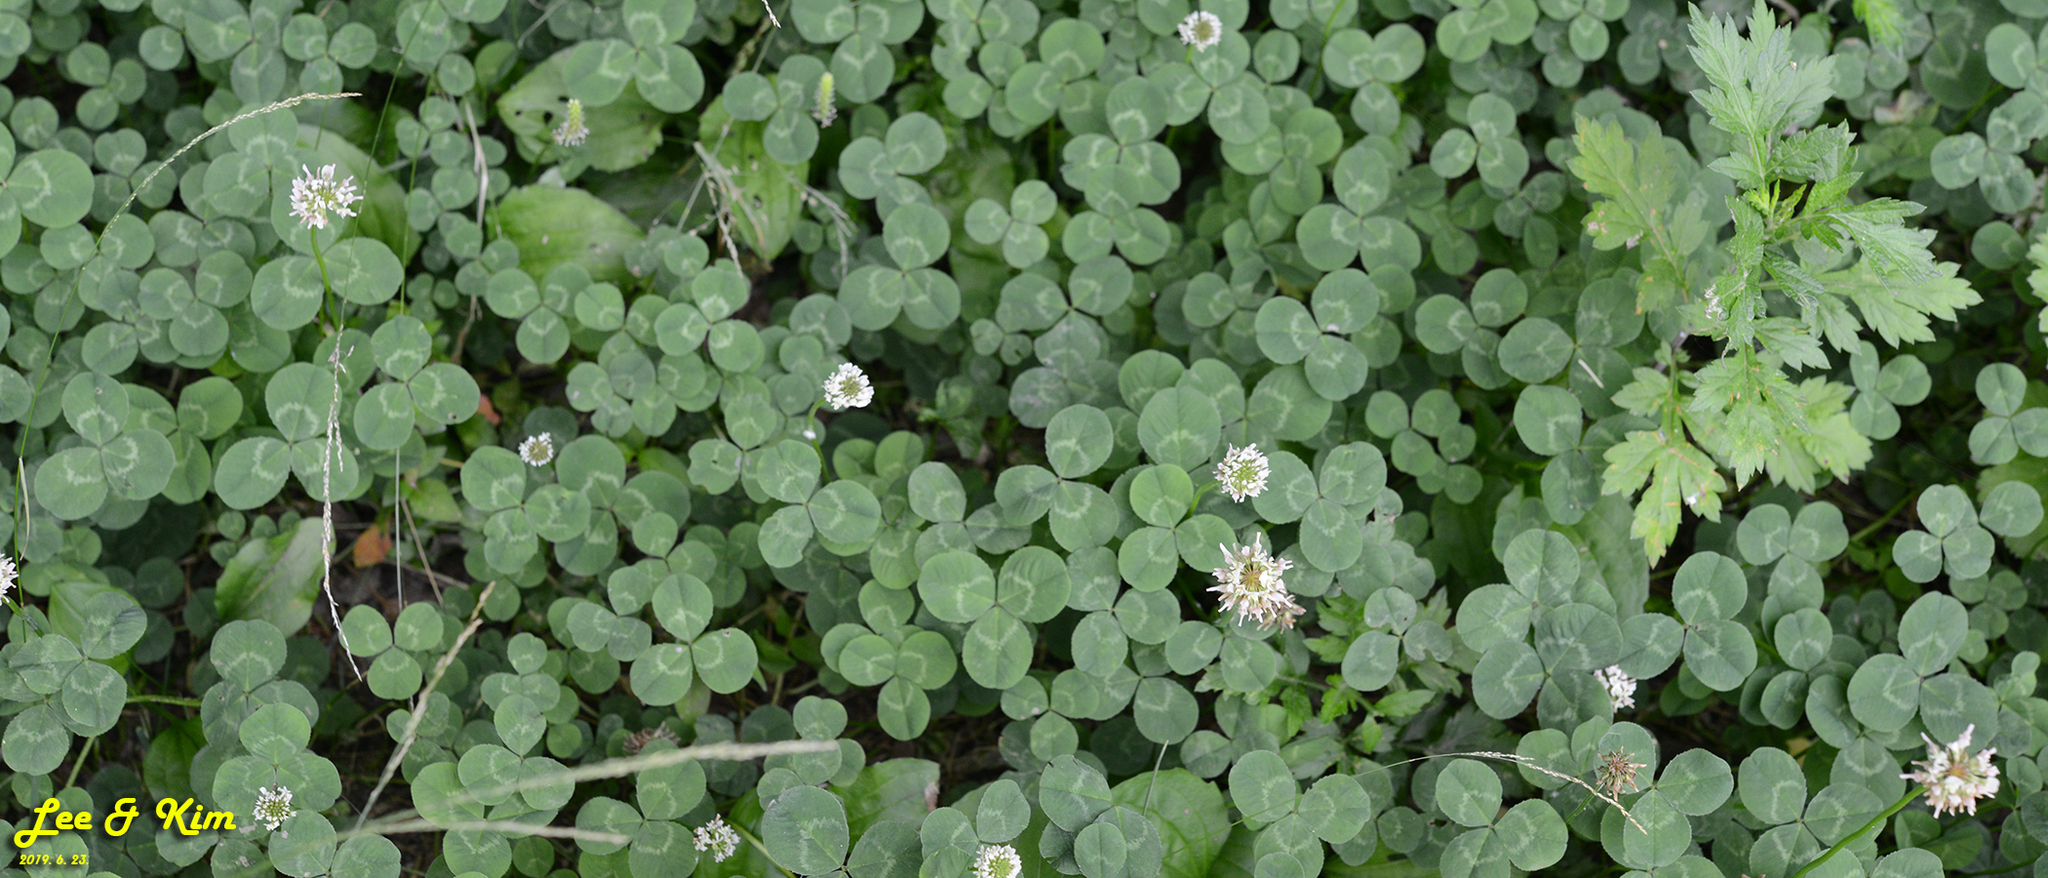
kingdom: Plantae
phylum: Tracheophyta
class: Magnoliopsida
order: Fabales
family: Fabaceae
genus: Trifolium
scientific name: Trifolium repens
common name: White clover
